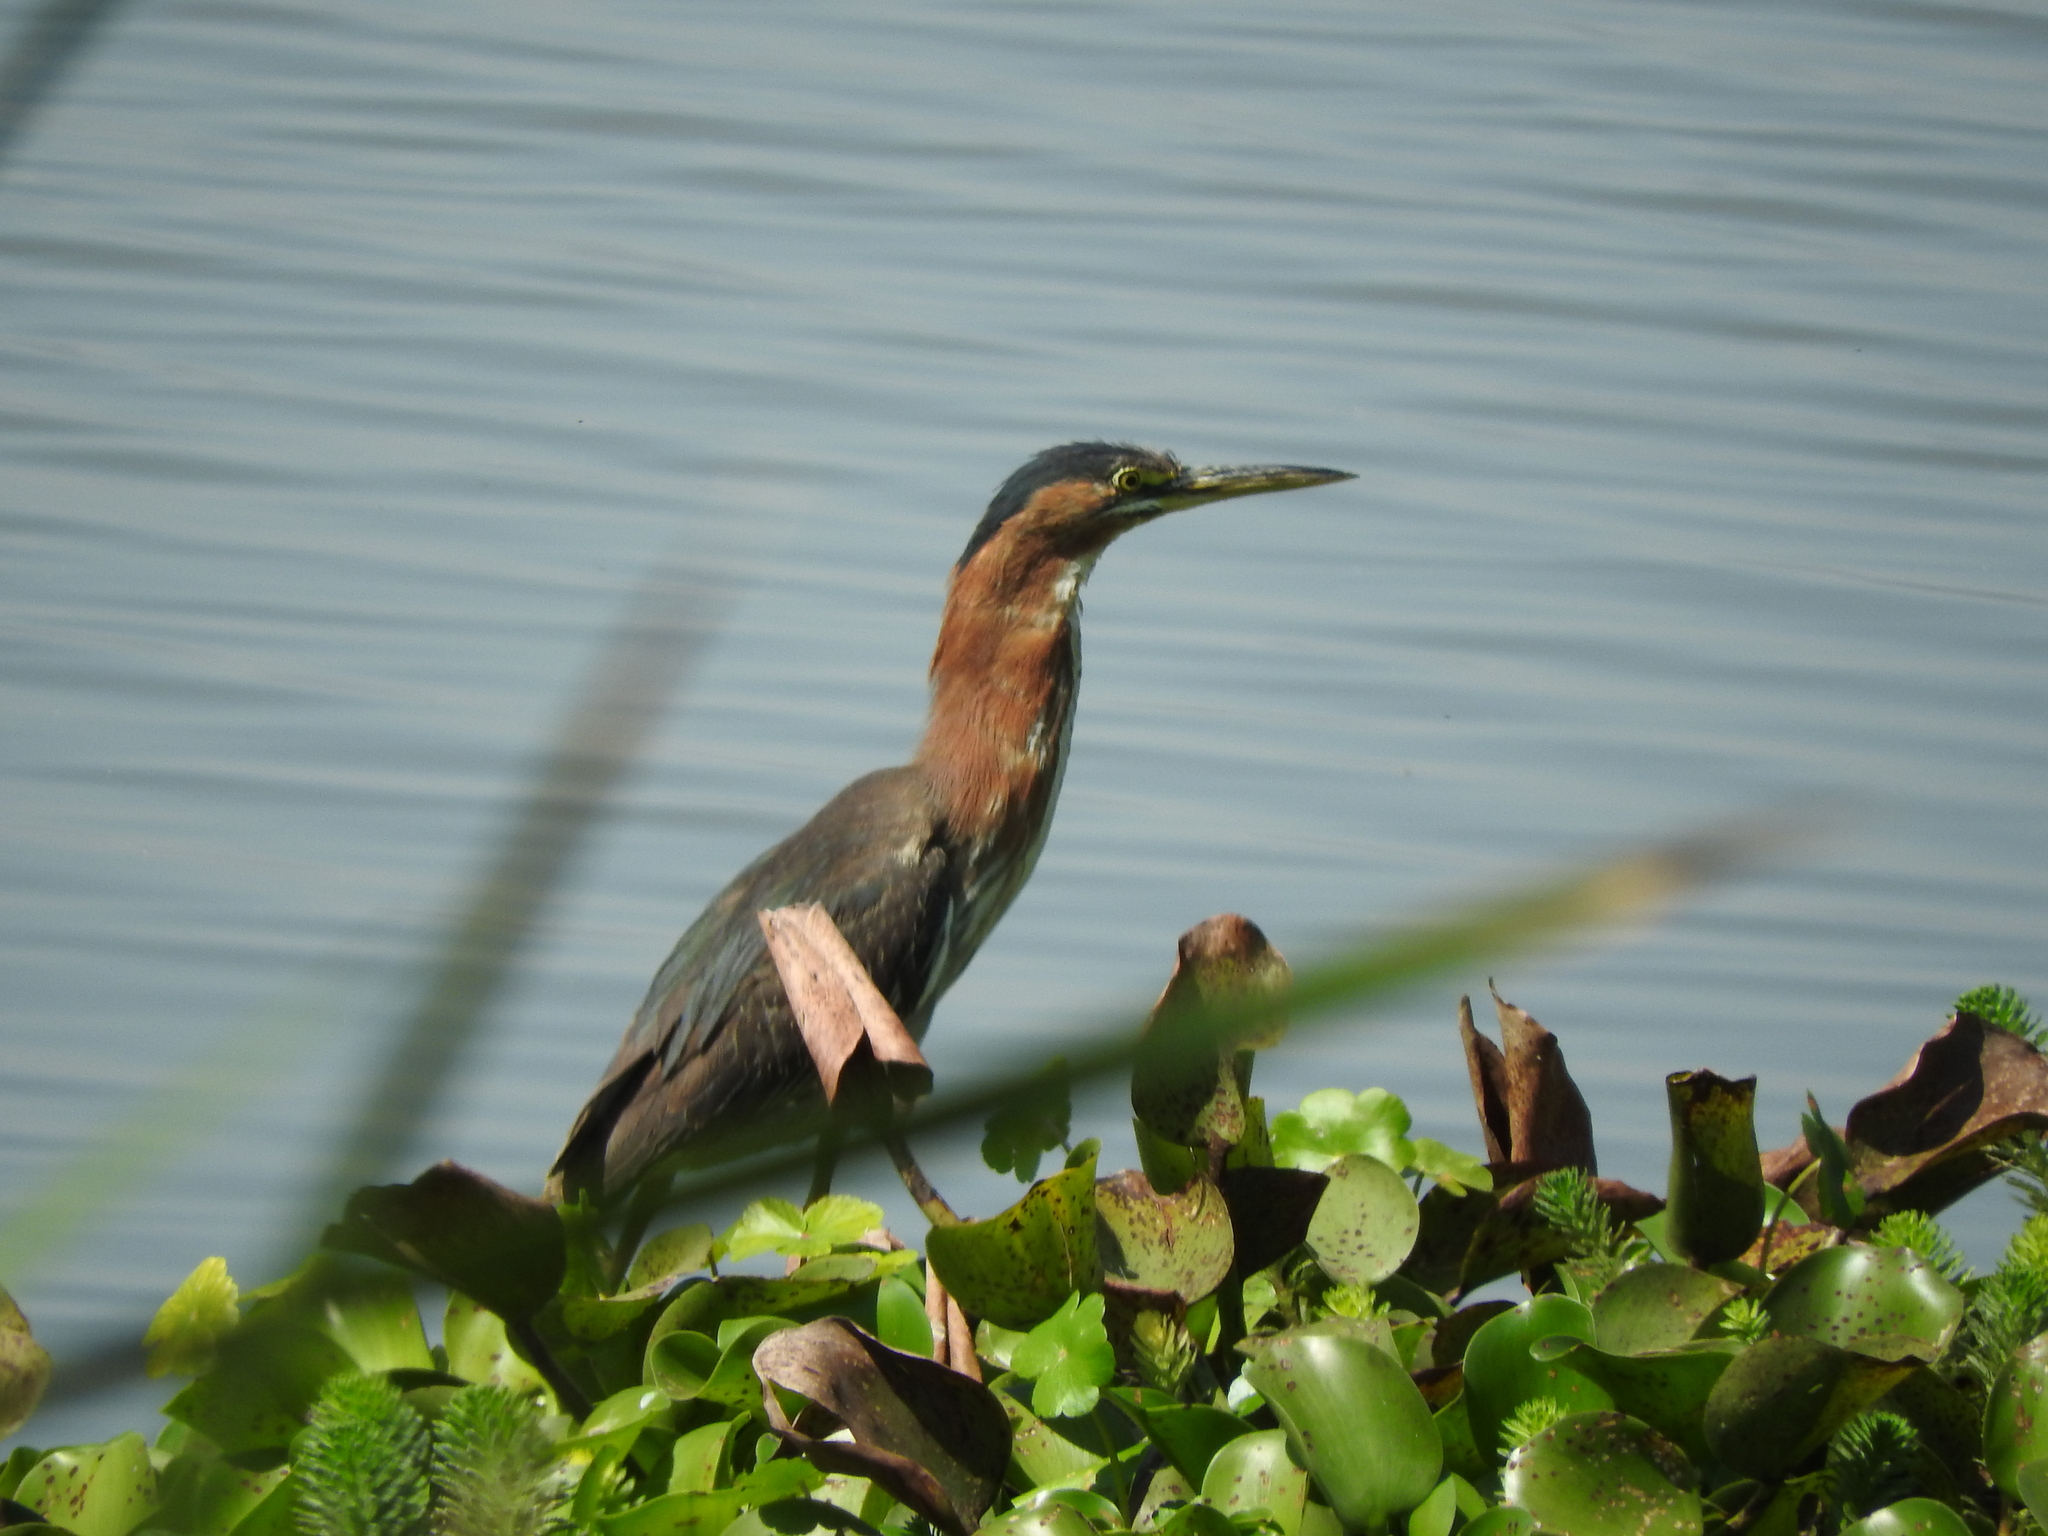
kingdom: Animalia
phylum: Chordata
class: Aves
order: Pelecaniformes
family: Ardeidae
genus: Butorides
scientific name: Butorides virescens
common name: Green heron
